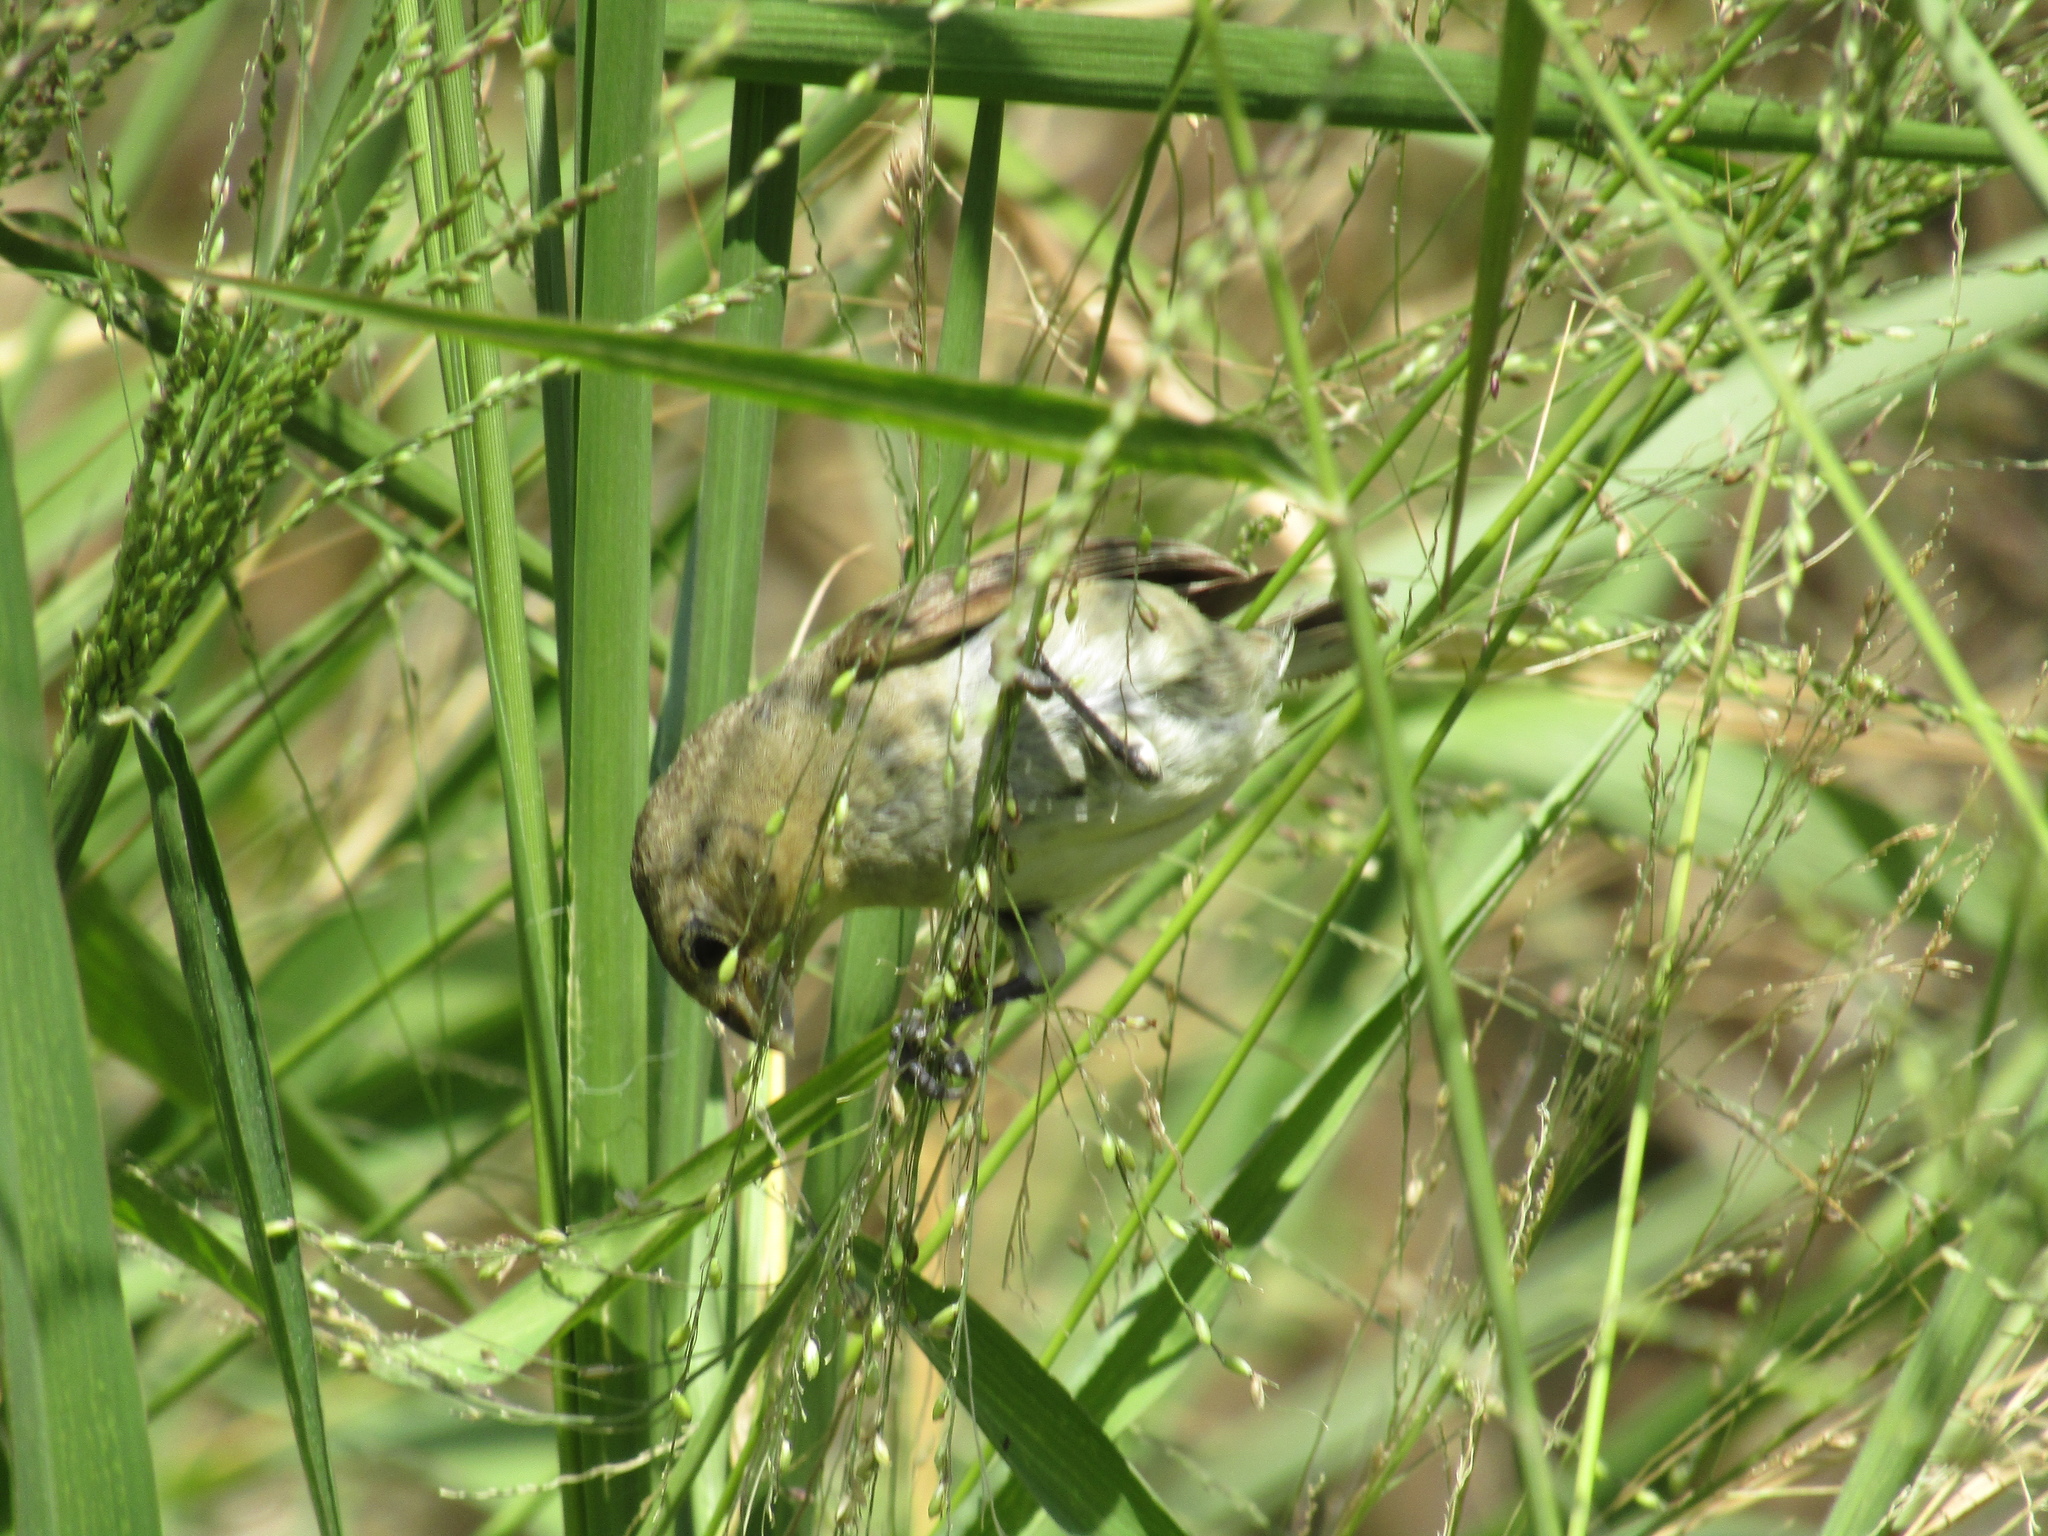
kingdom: Animalia
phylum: Chordata
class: Aves
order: Passeriformes
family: Thraupidae
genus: Sporophila
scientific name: Sporophila caerulescens
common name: Double-collared seedeater
